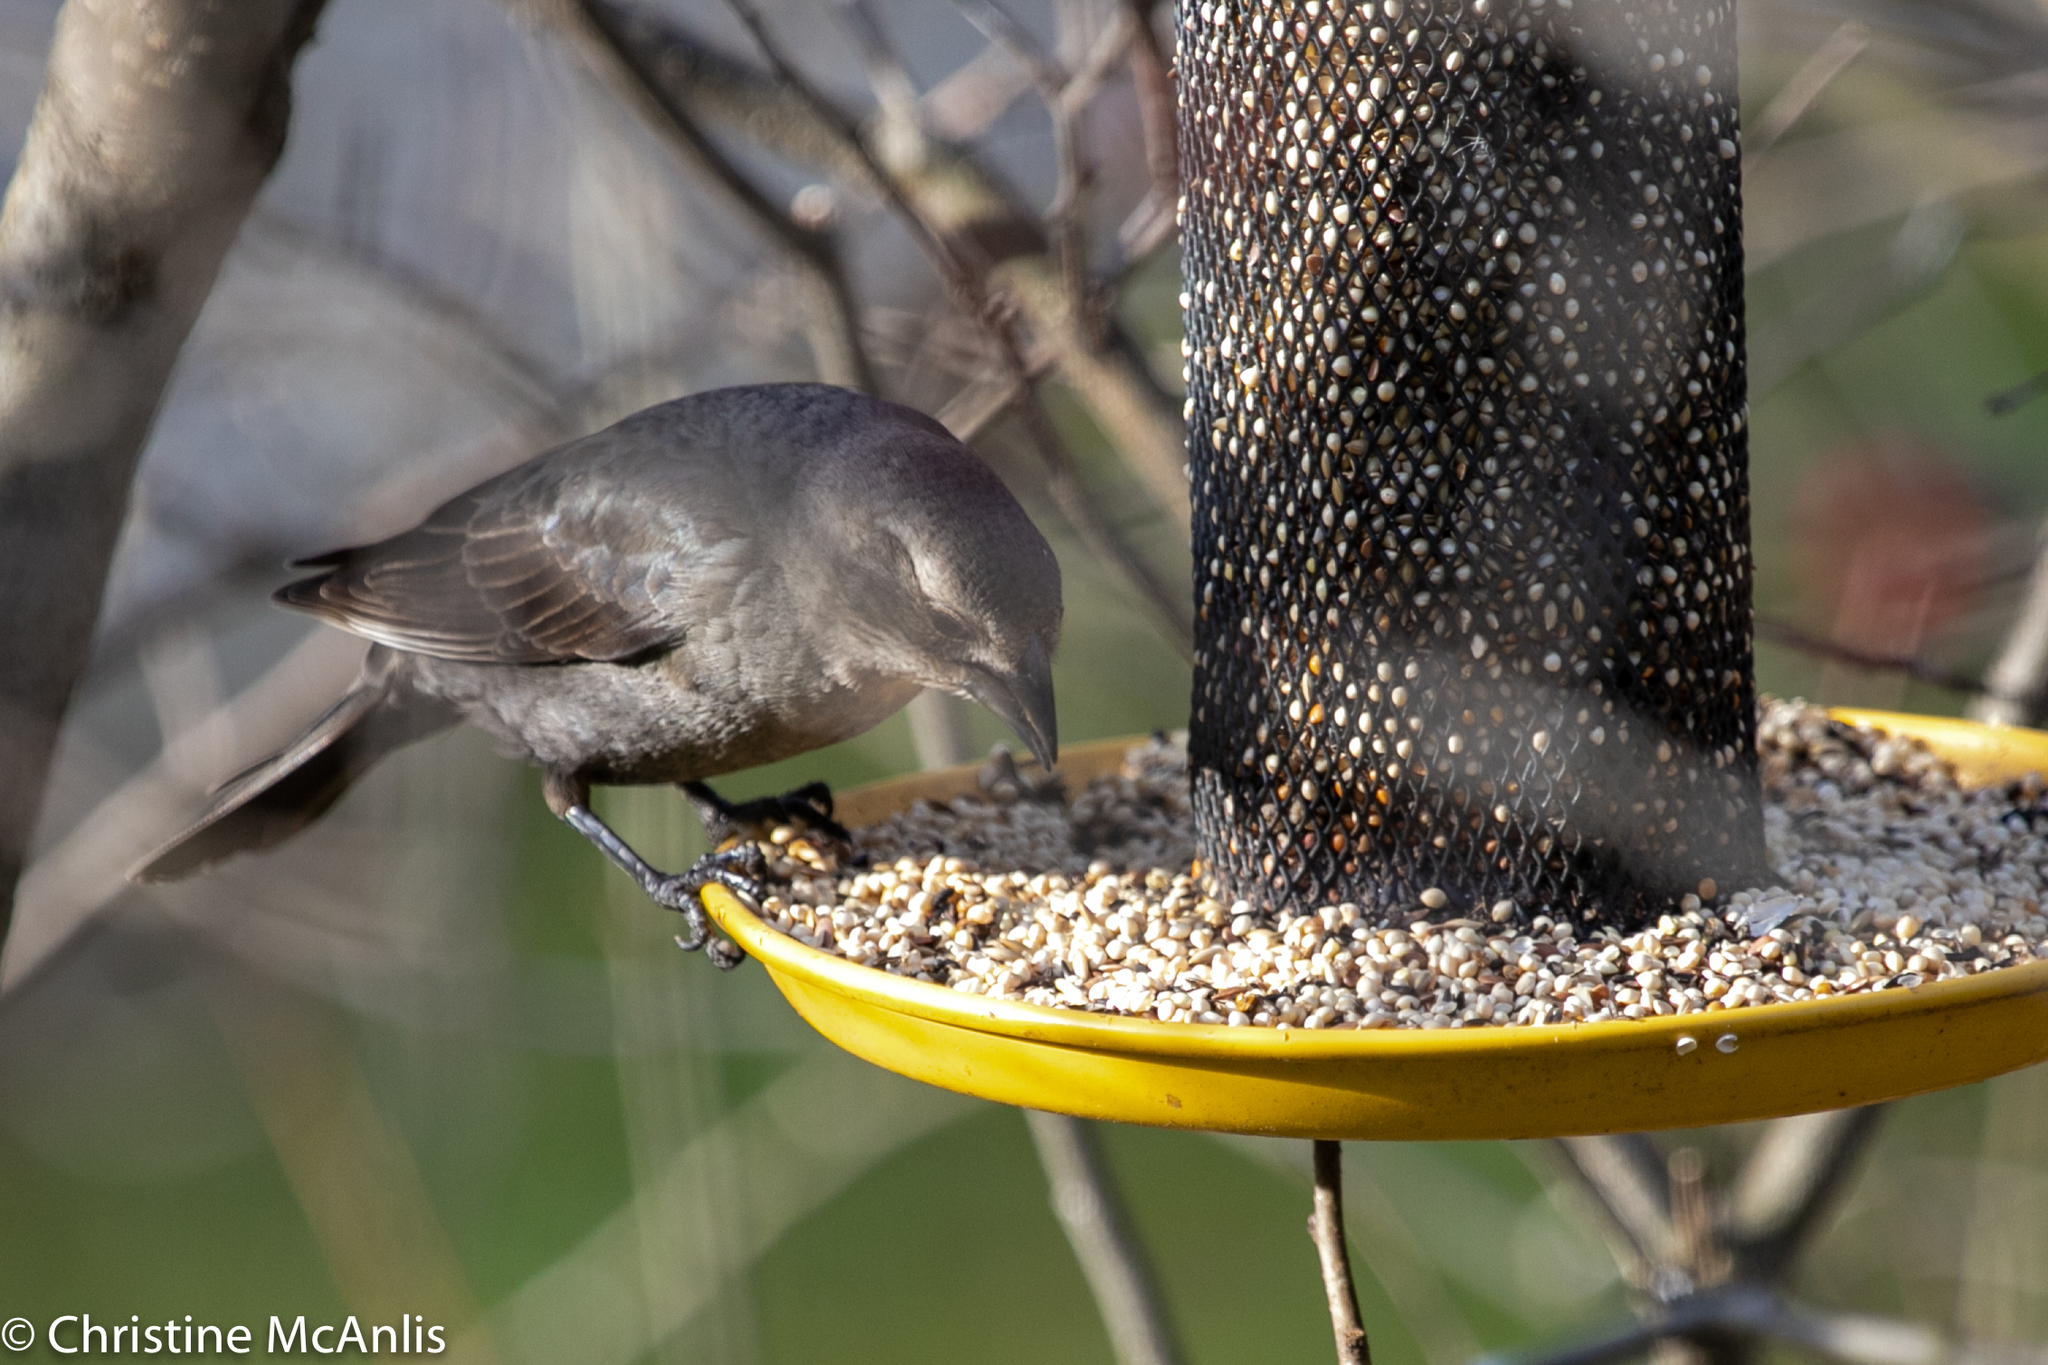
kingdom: Animalia
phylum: Chordata
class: Aves
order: Passeriformes
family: Icteridae
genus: Molothrus
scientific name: Molothrus ater
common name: Brown-headed cowbird
